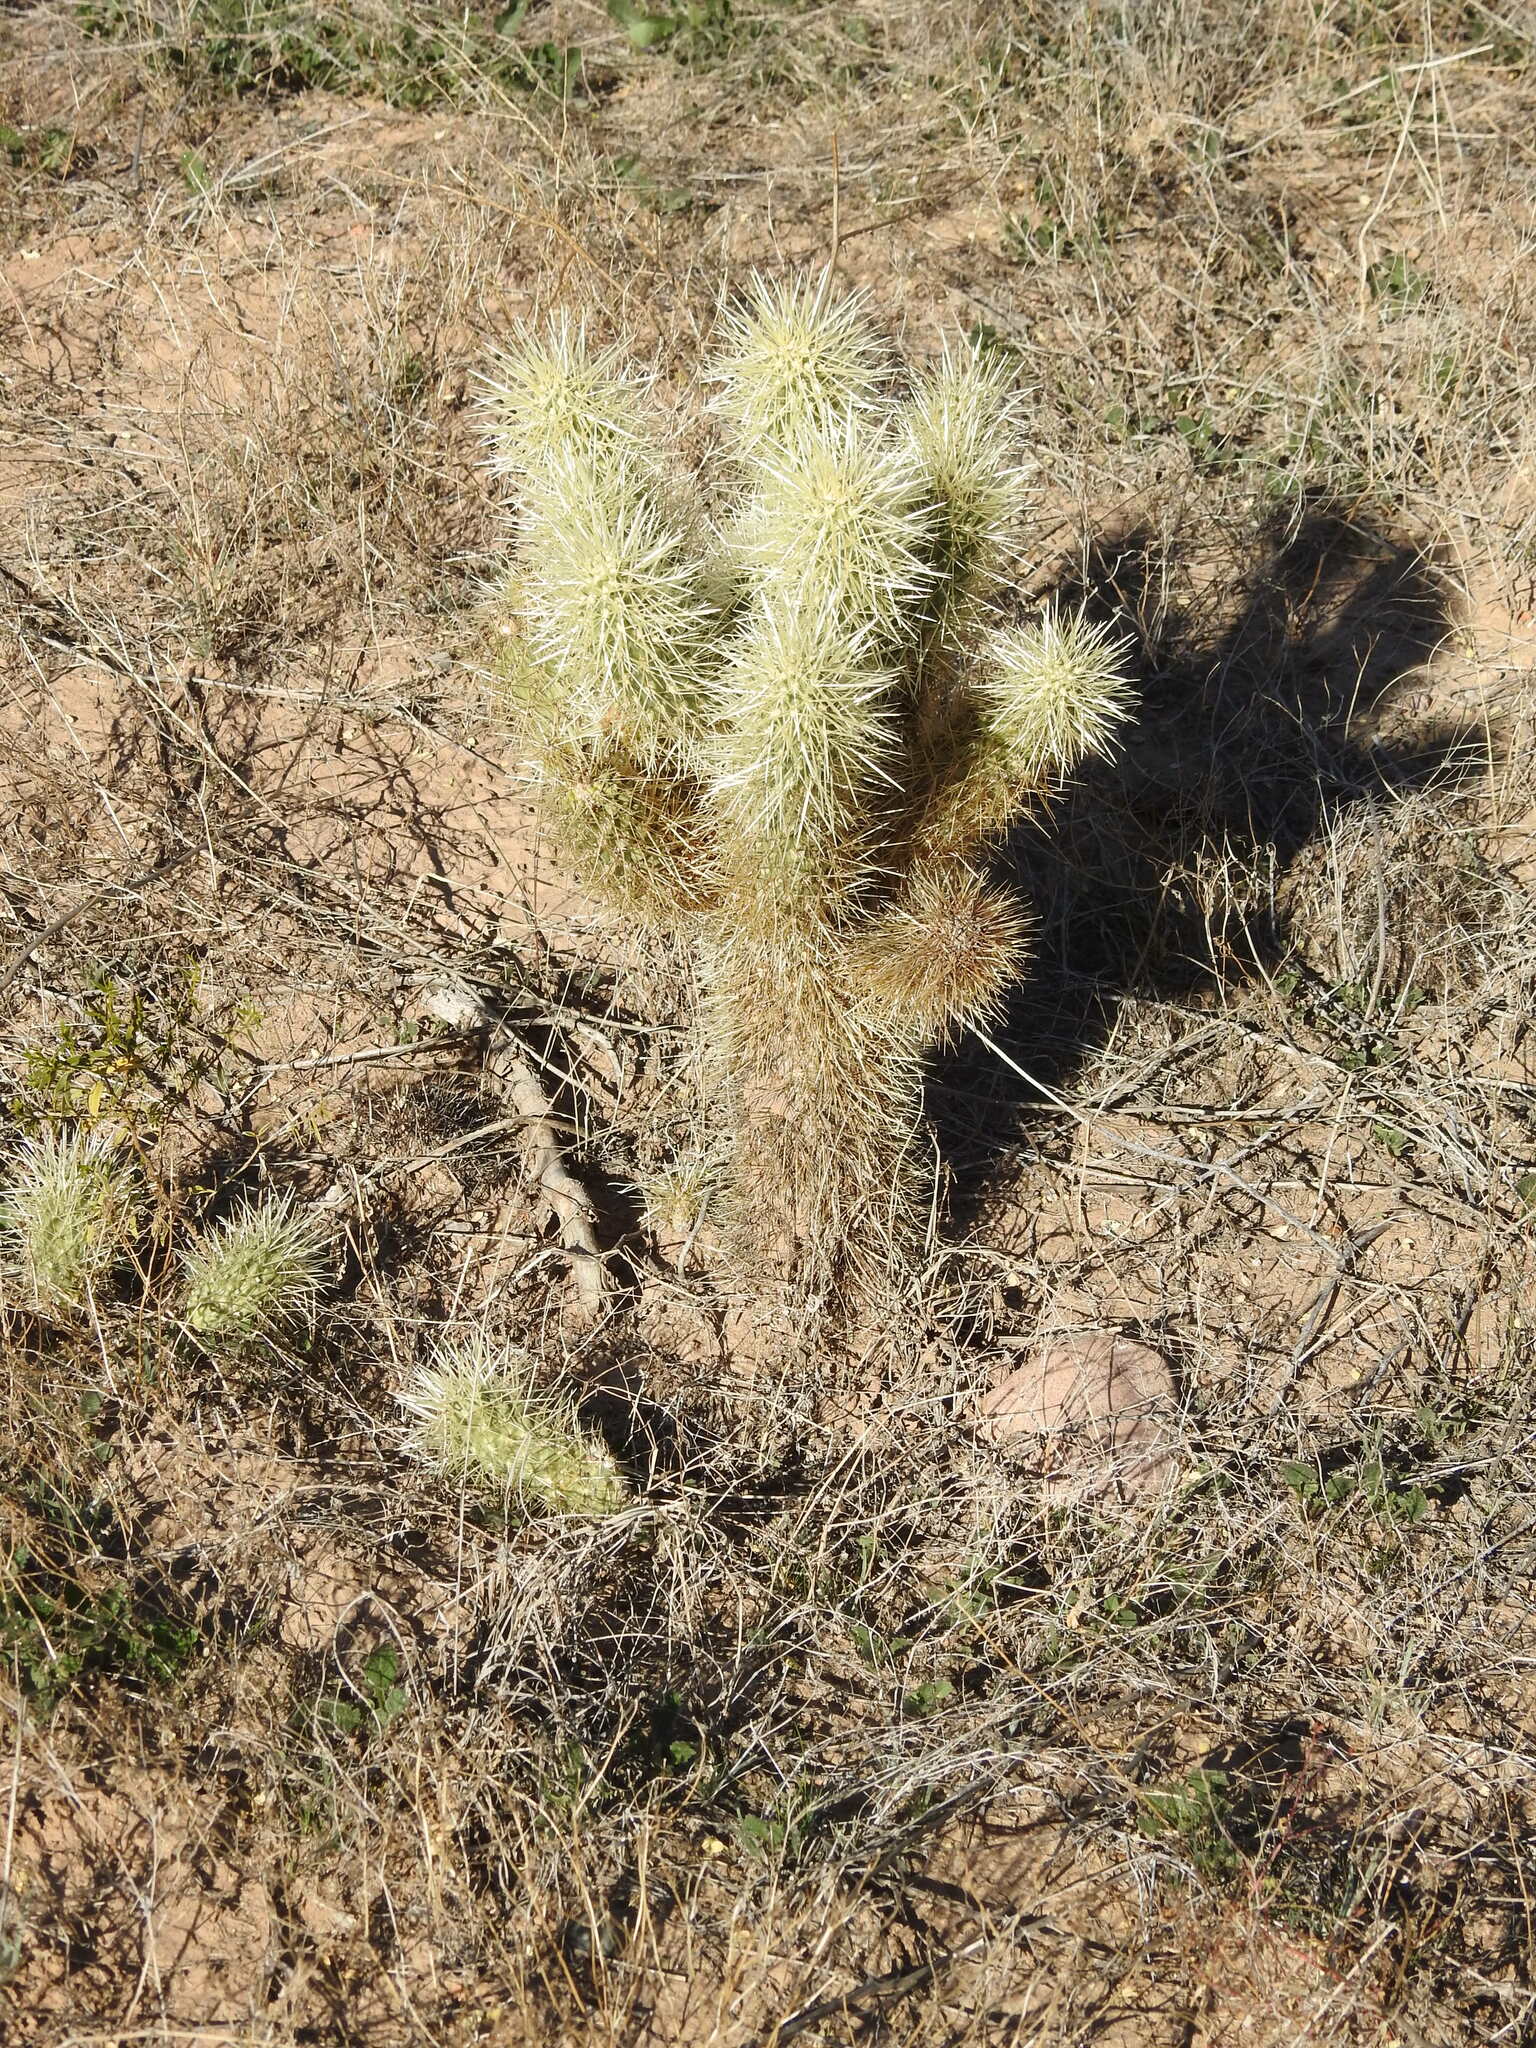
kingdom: Plantae
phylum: Tracheophyta
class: Magnoliopsida
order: Caryophyllales
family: Cactaceae
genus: Cylindropuntia
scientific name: Cylindropuntia fosbergii
